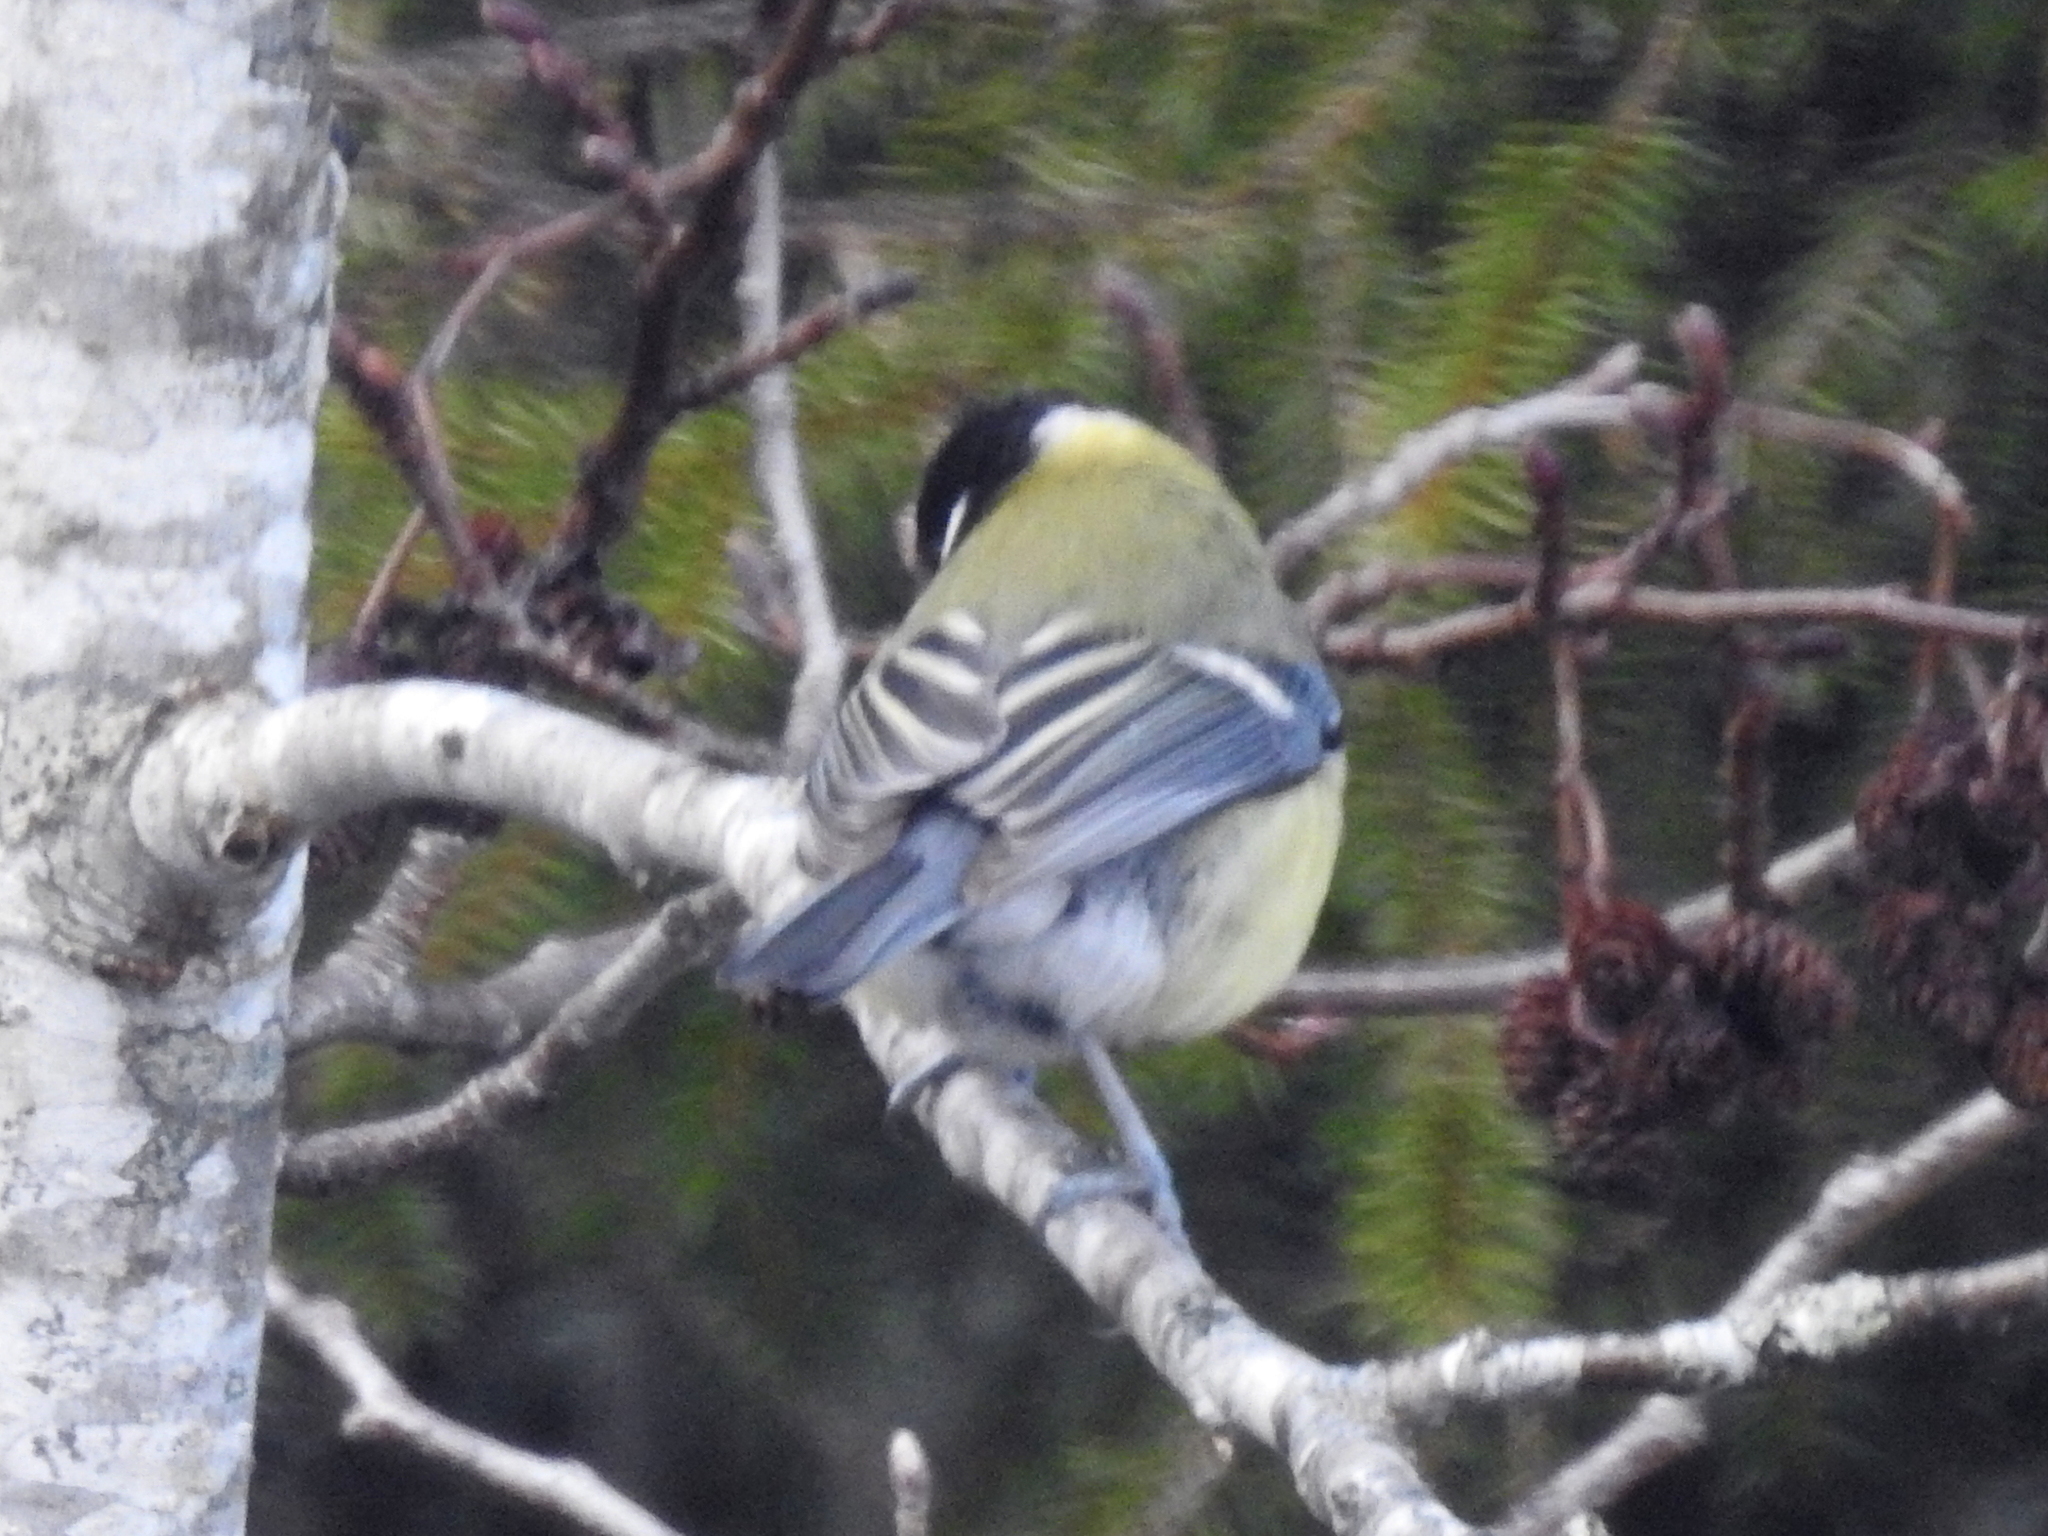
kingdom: Animalia
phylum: Chordata
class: Aves
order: Passeriformes
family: Paridae
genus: Parus
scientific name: Parus major
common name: Great tit
